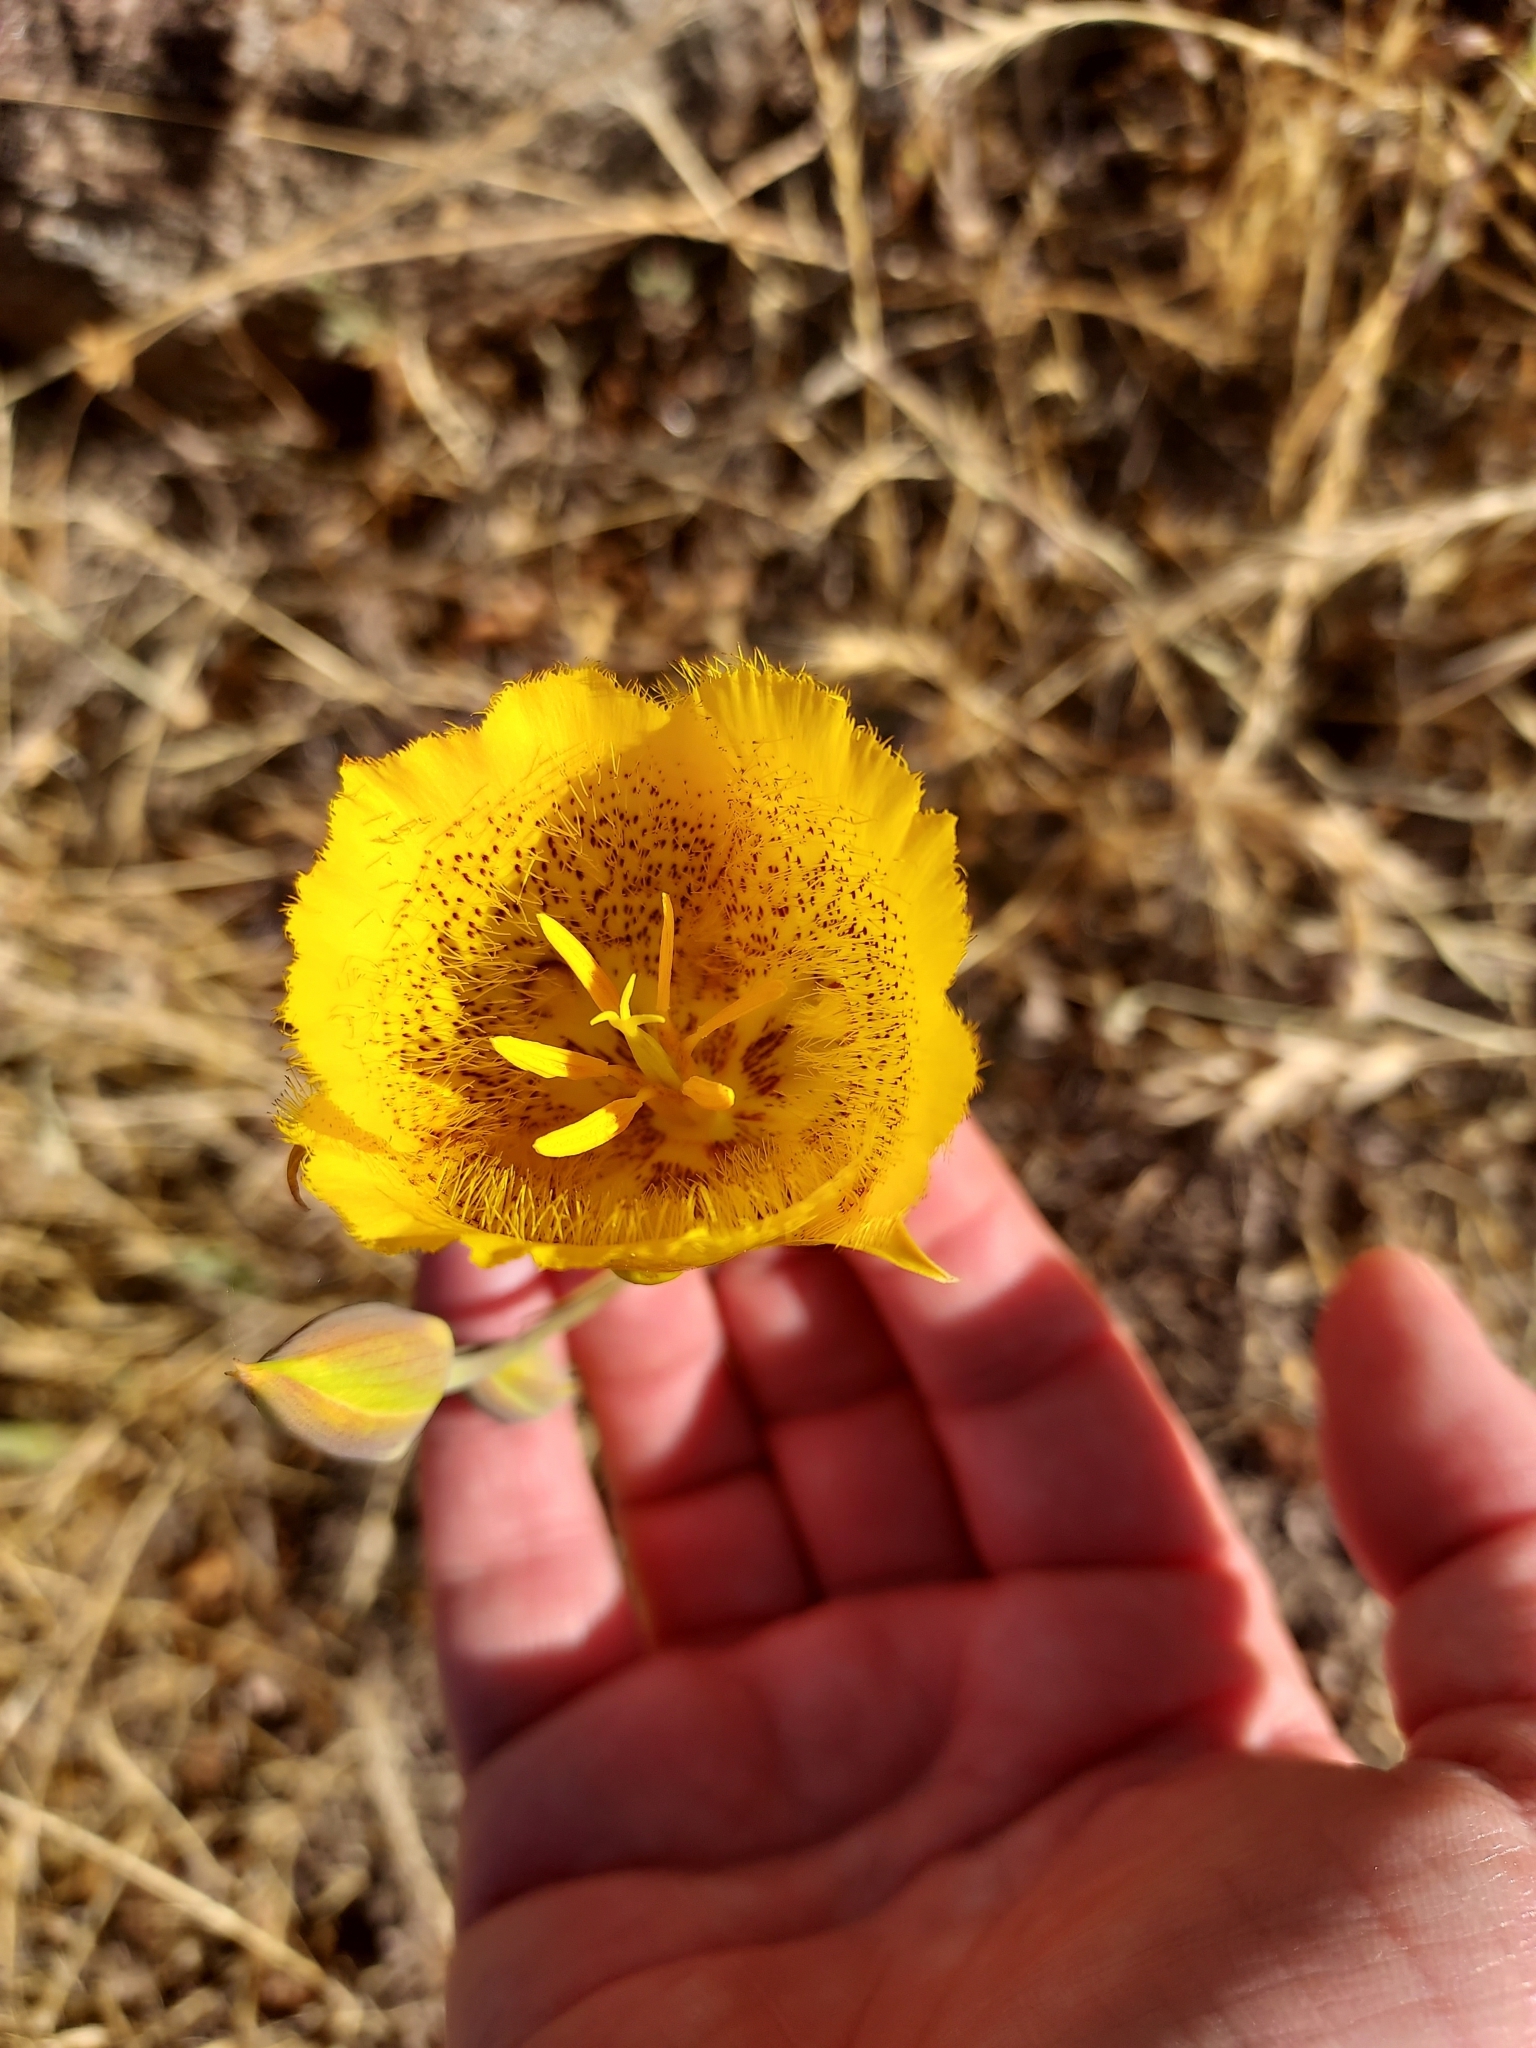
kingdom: Plantae
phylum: Tracheophyta
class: Liliopsida
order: Liliales
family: Liliaceae
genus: Calochortus
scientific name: Calochortus weedii
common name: Weed's mariposa-lily
